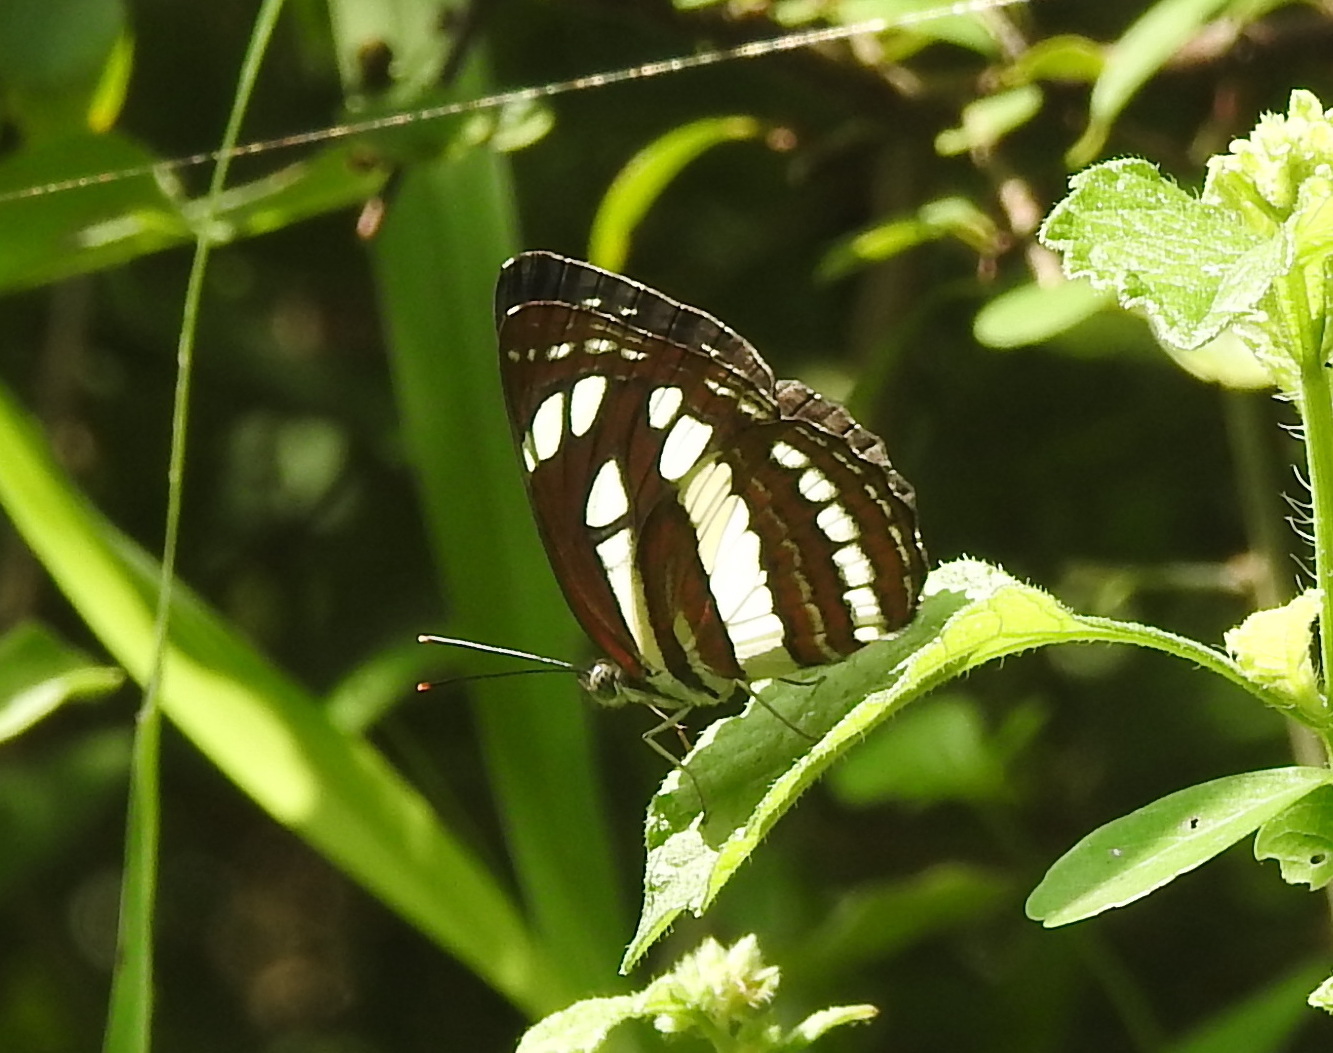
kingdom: Animalia
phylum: Arthropoda
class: Insecta
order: Lepidoptera
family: Nymphalidae
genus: Neptis
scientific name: Neptis hylas
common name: Common sailer
